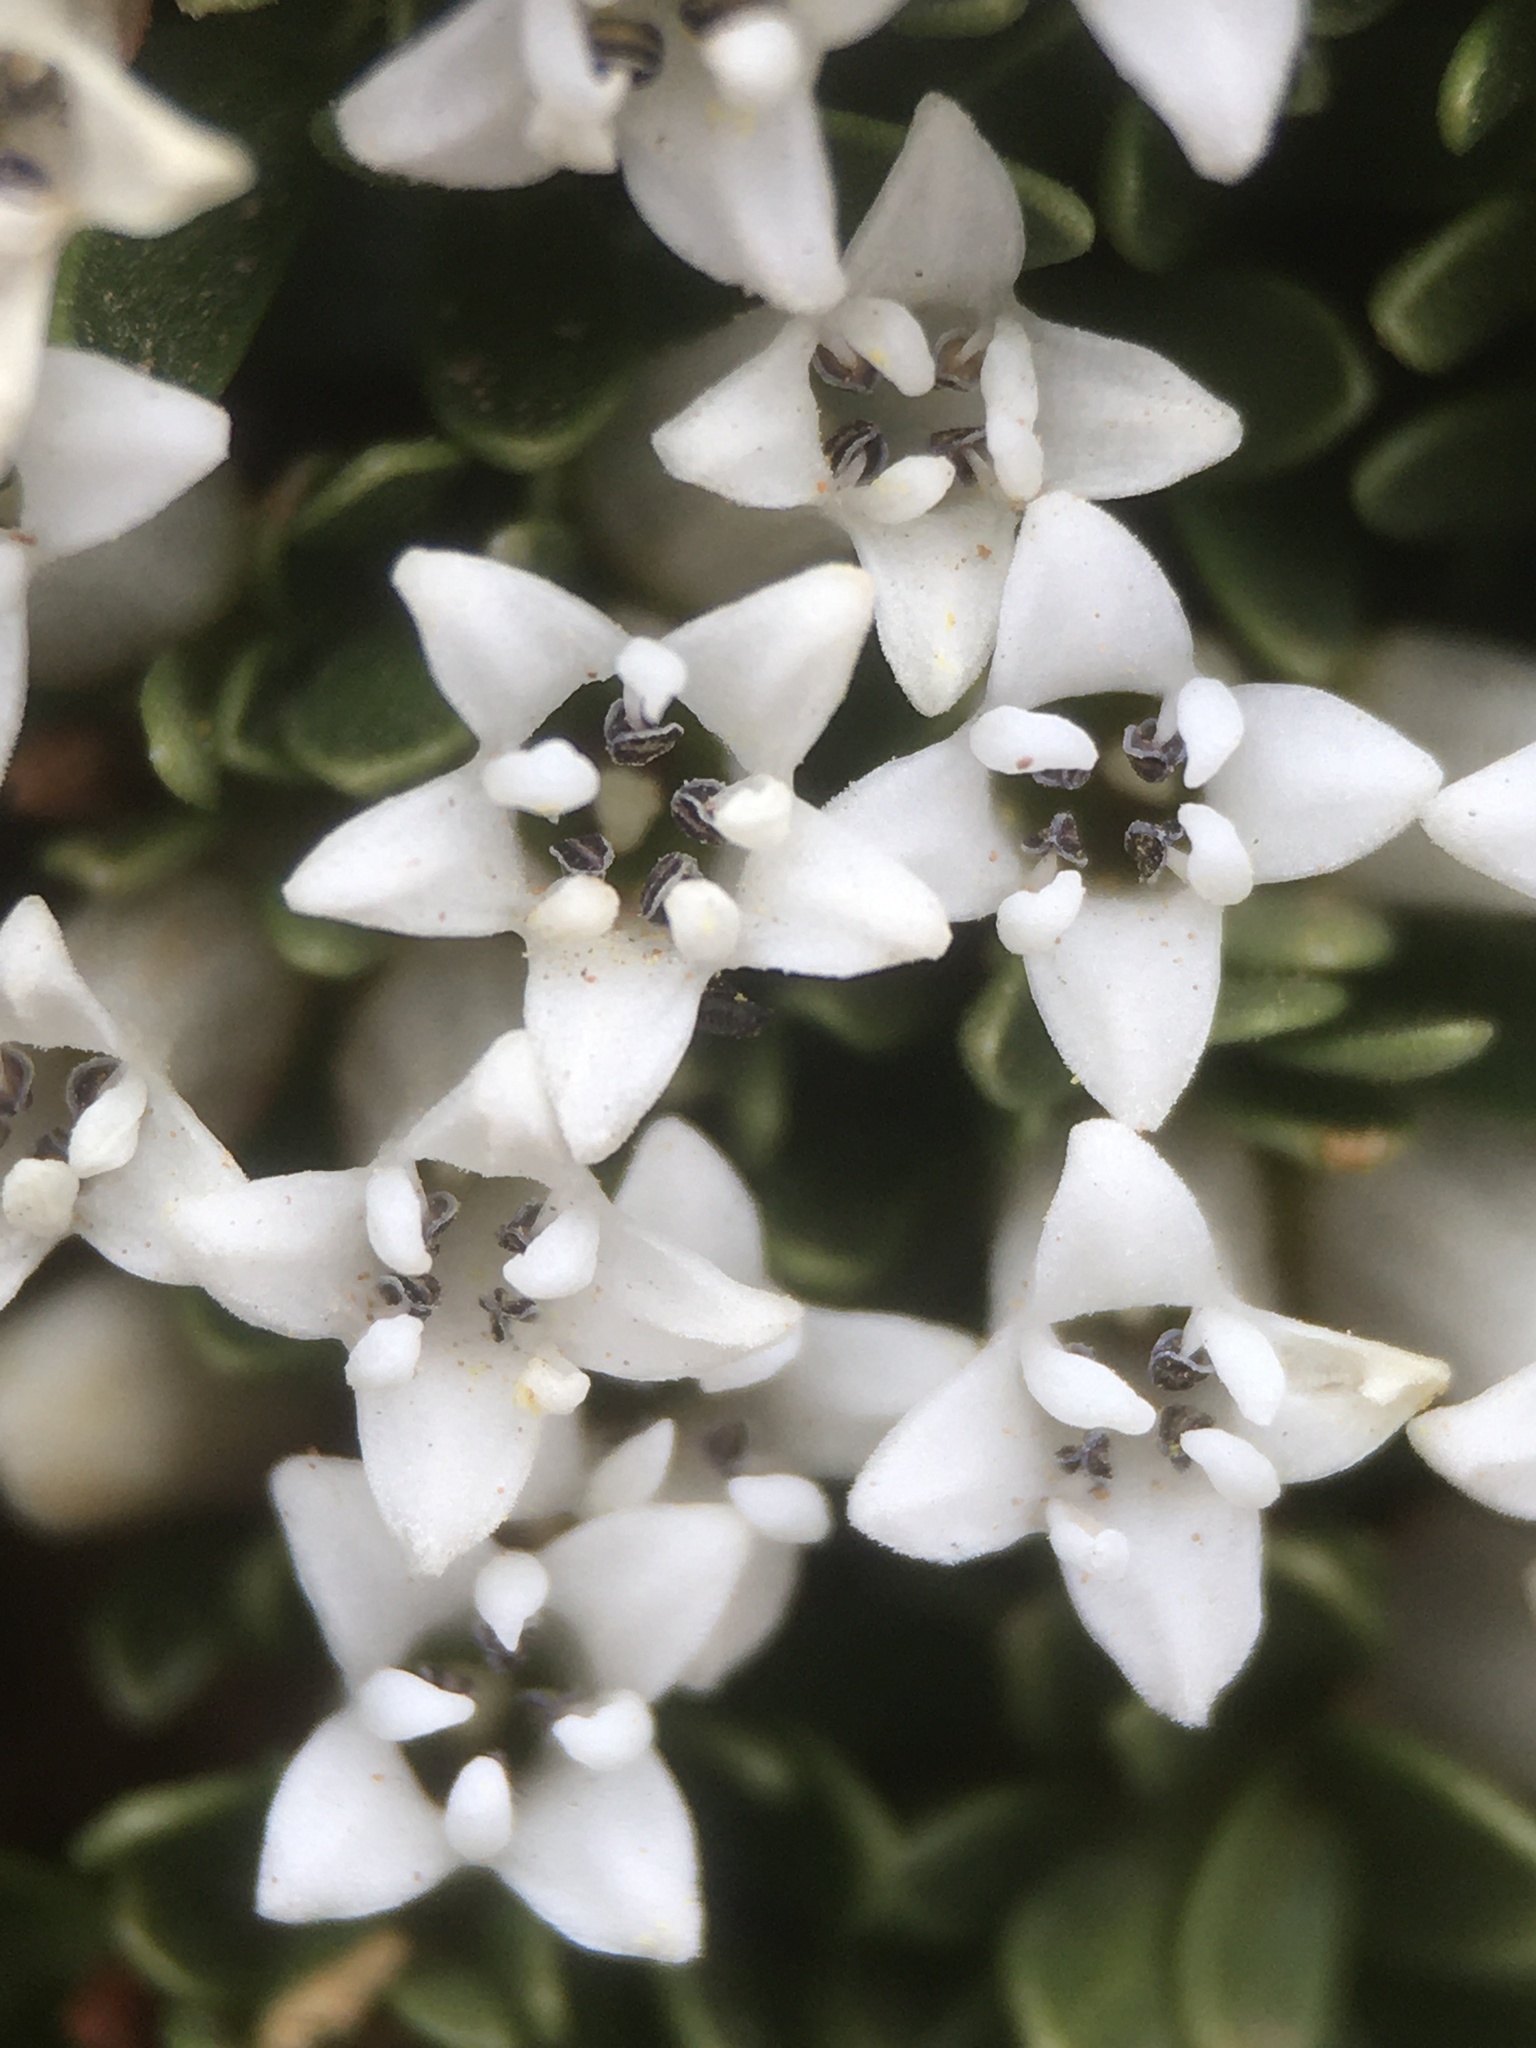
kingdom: Plantae
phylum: Tracheophyta
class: Magnoliopsida
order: Rosales
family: Rhamnaceae
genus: Discaria
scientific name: Discaria nana
